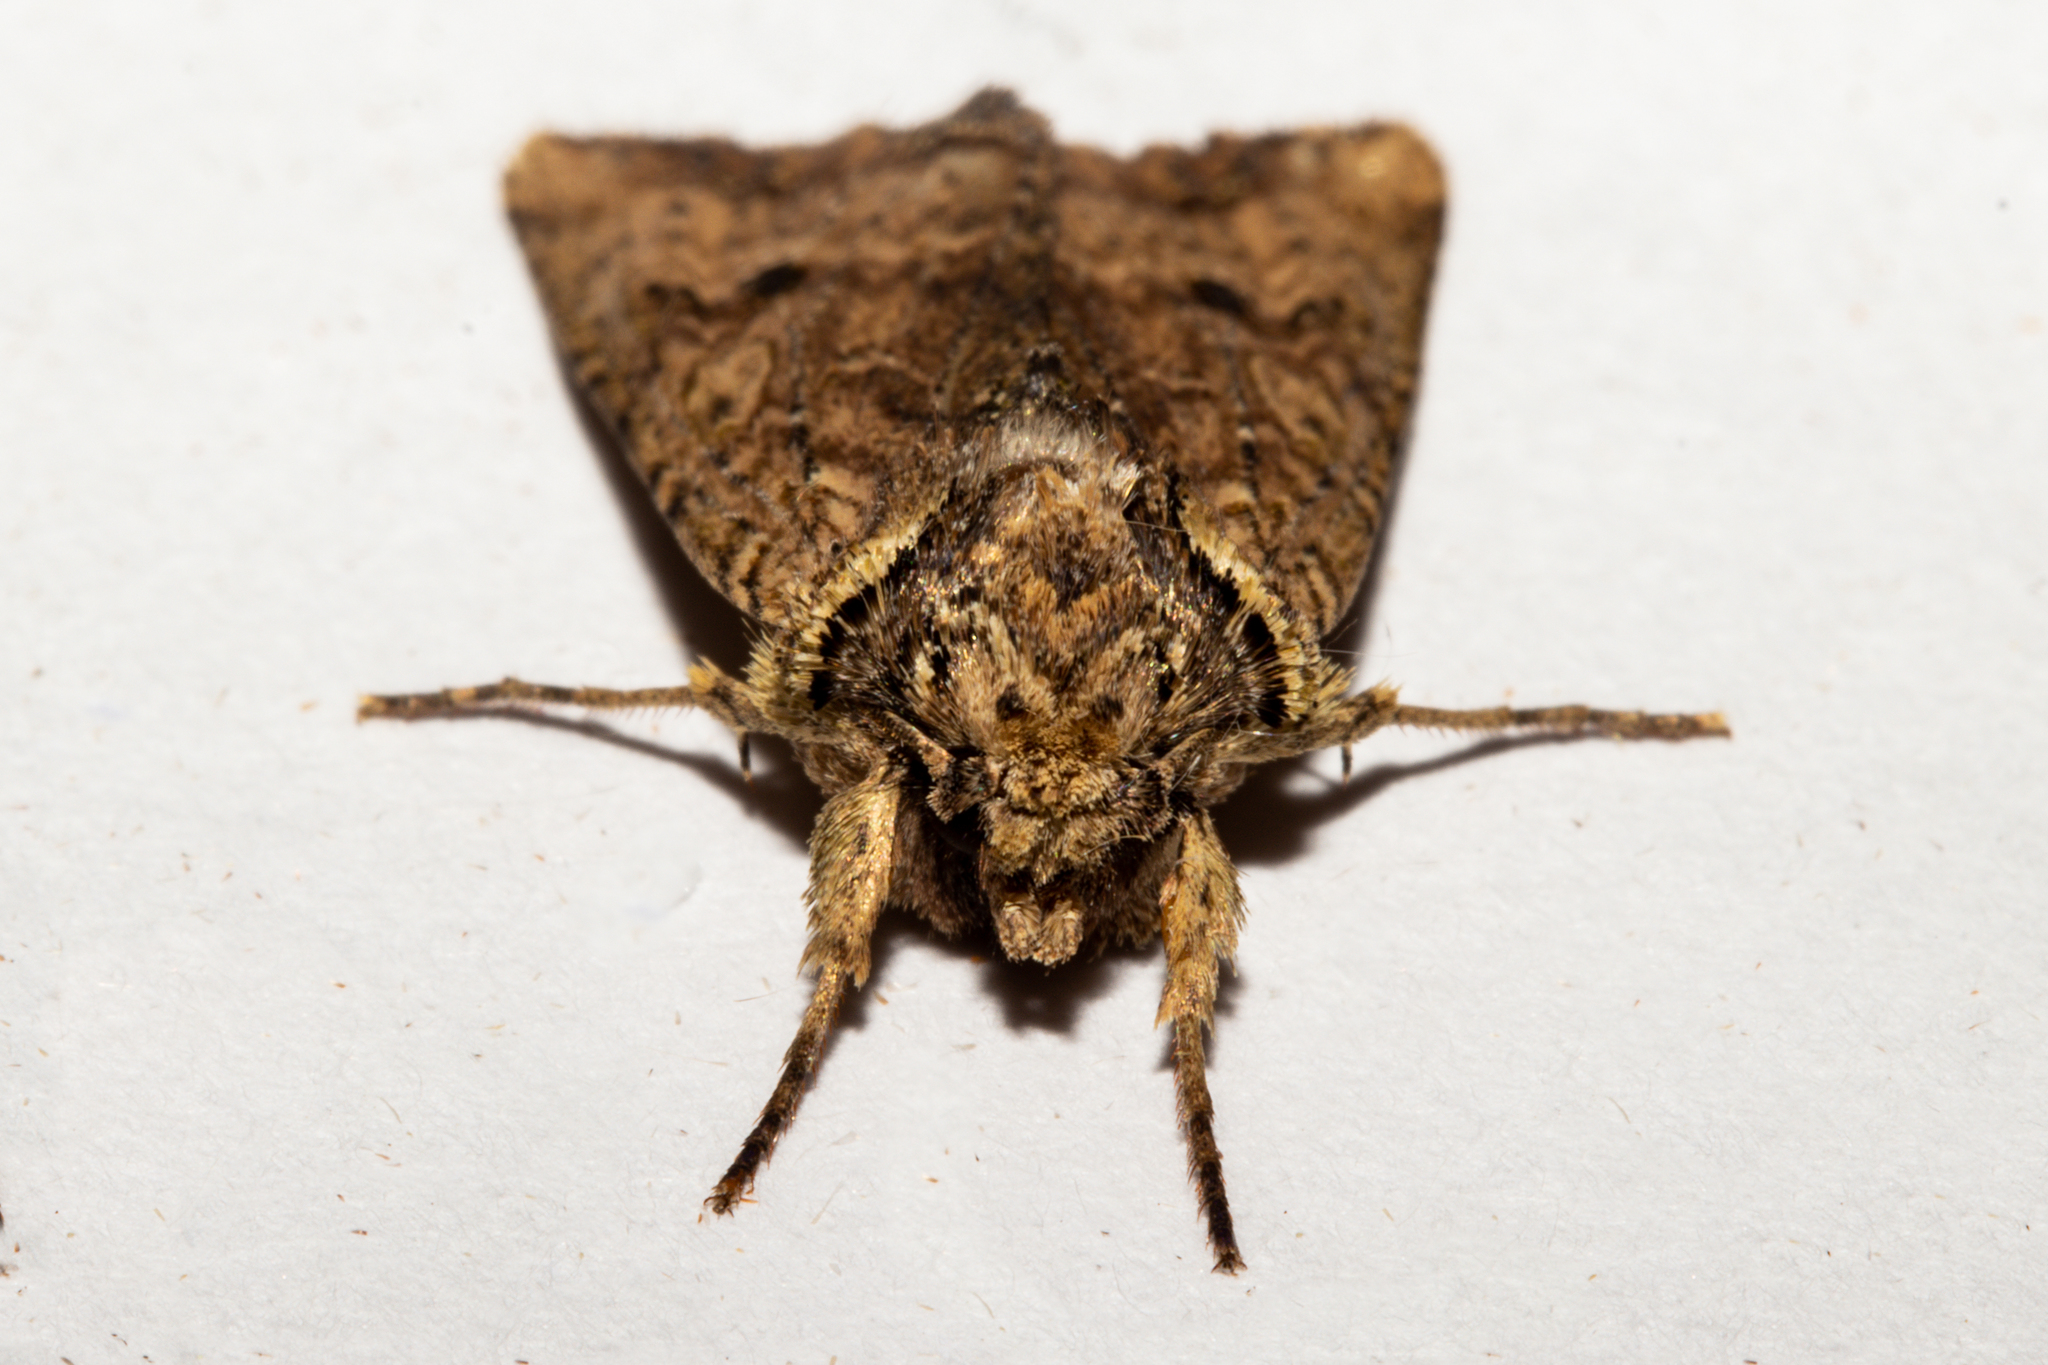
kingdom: Animalia
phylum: Arthropoda
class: Insecta
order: Lepidoptera
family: Noctuidae
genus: Meterana
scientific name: Meterana coeleno
